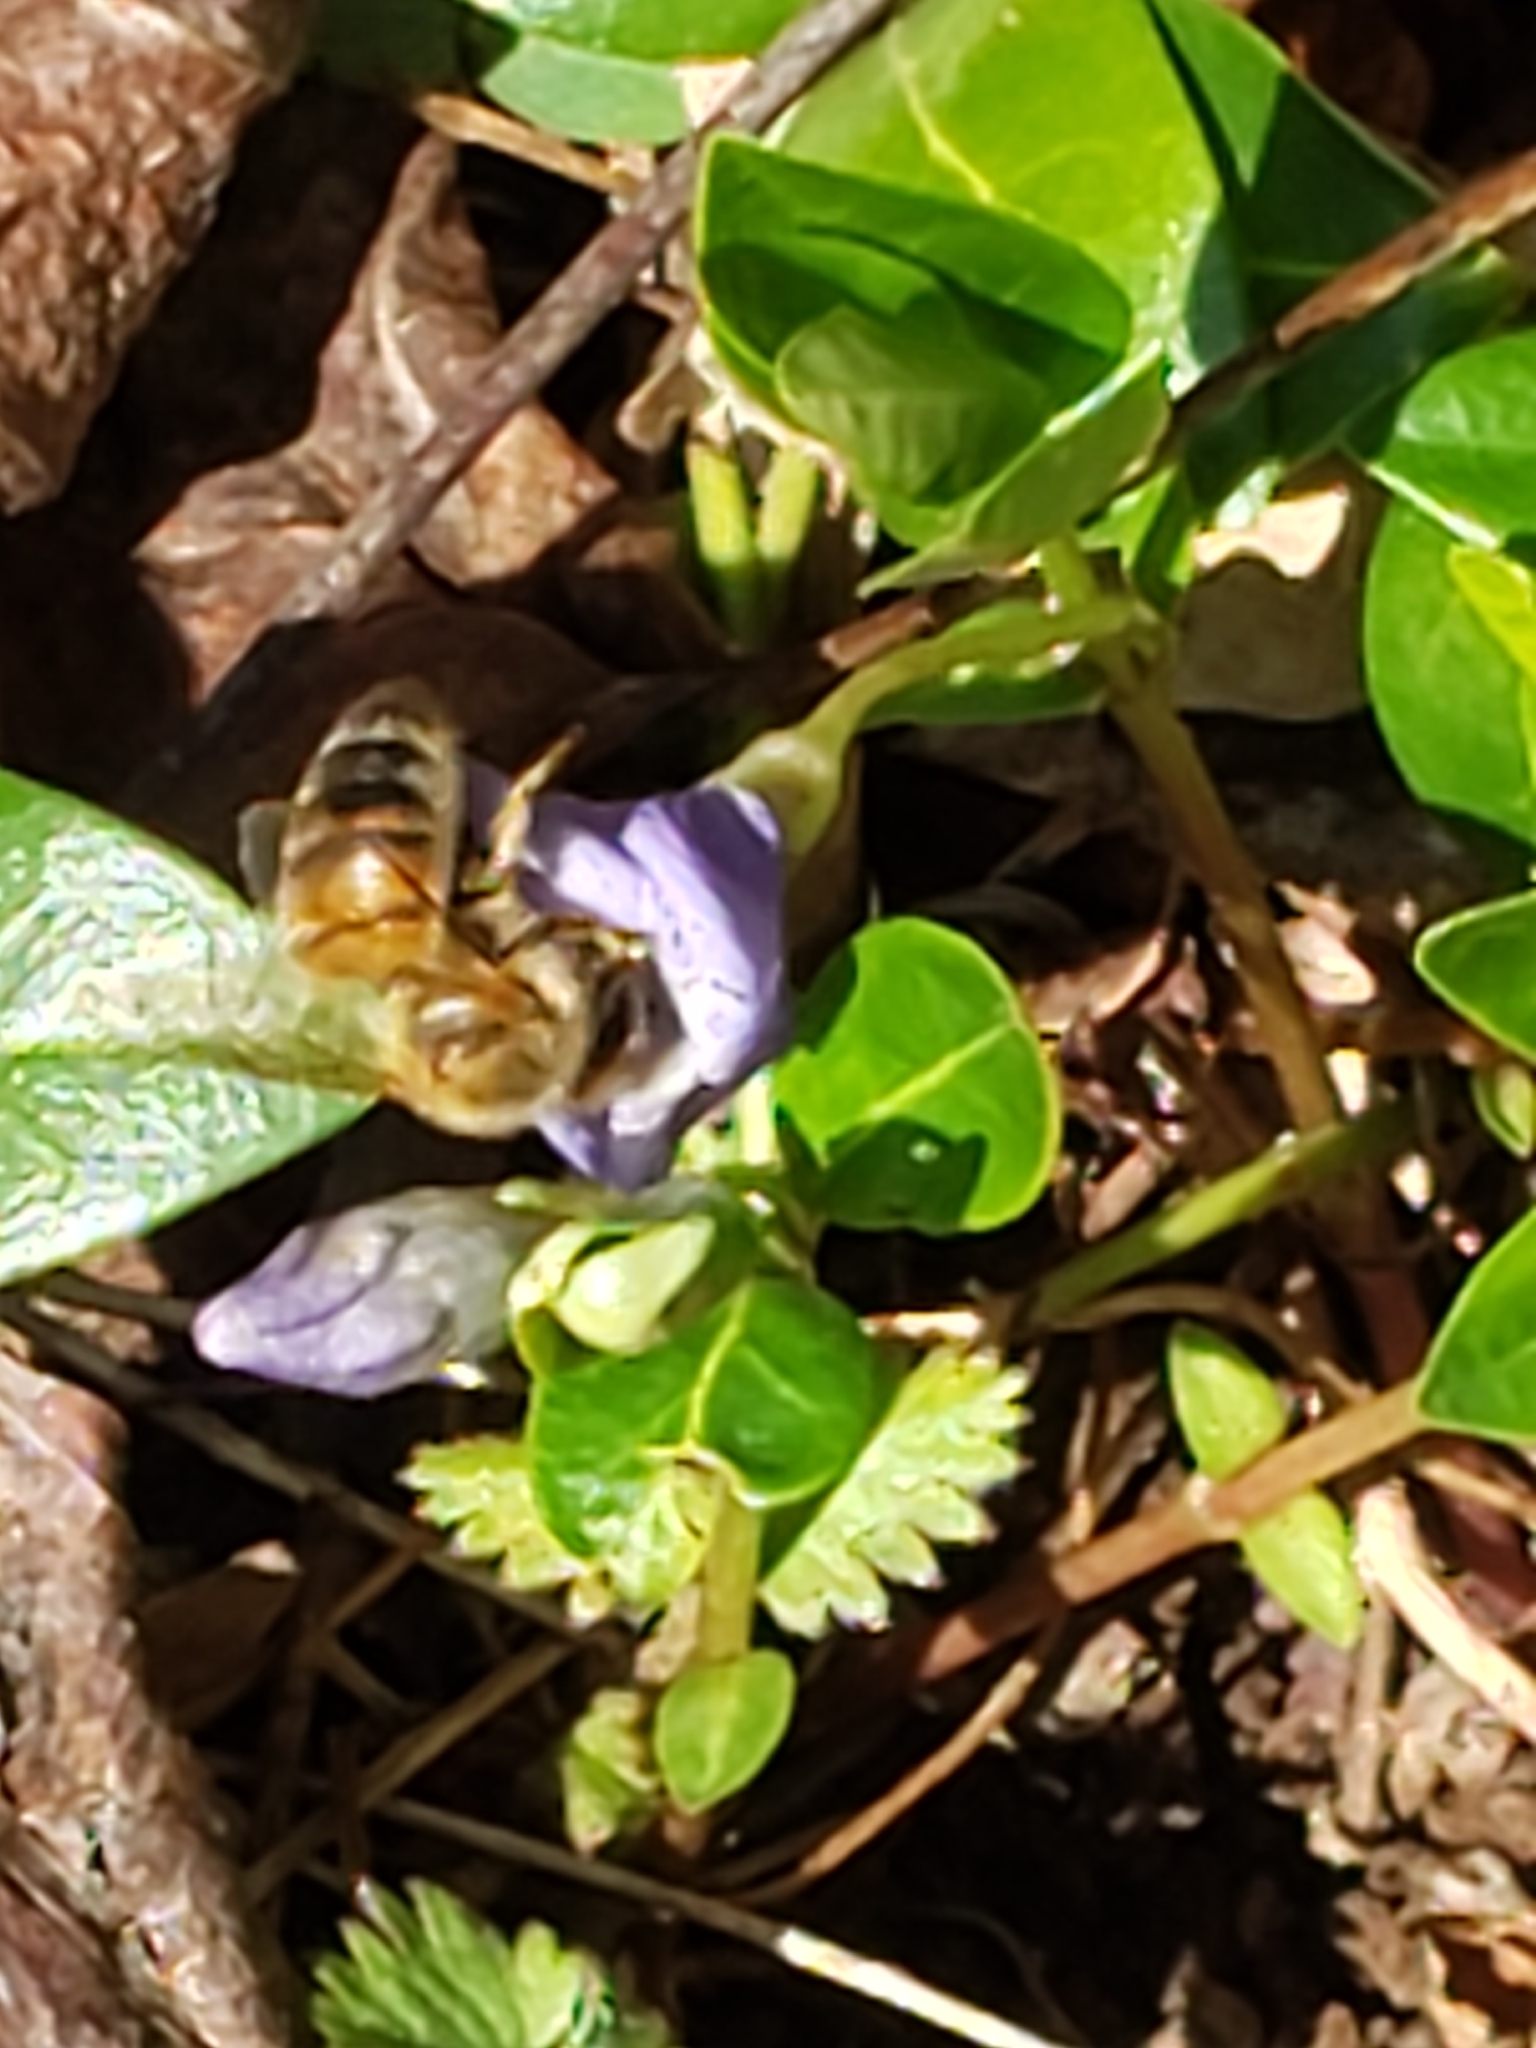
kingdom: Animalia
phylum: Arthropoda
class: Insecta
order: Hymenoptera
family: Apidae
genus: Apis
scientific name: Apis mellifera
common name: Honey bee
